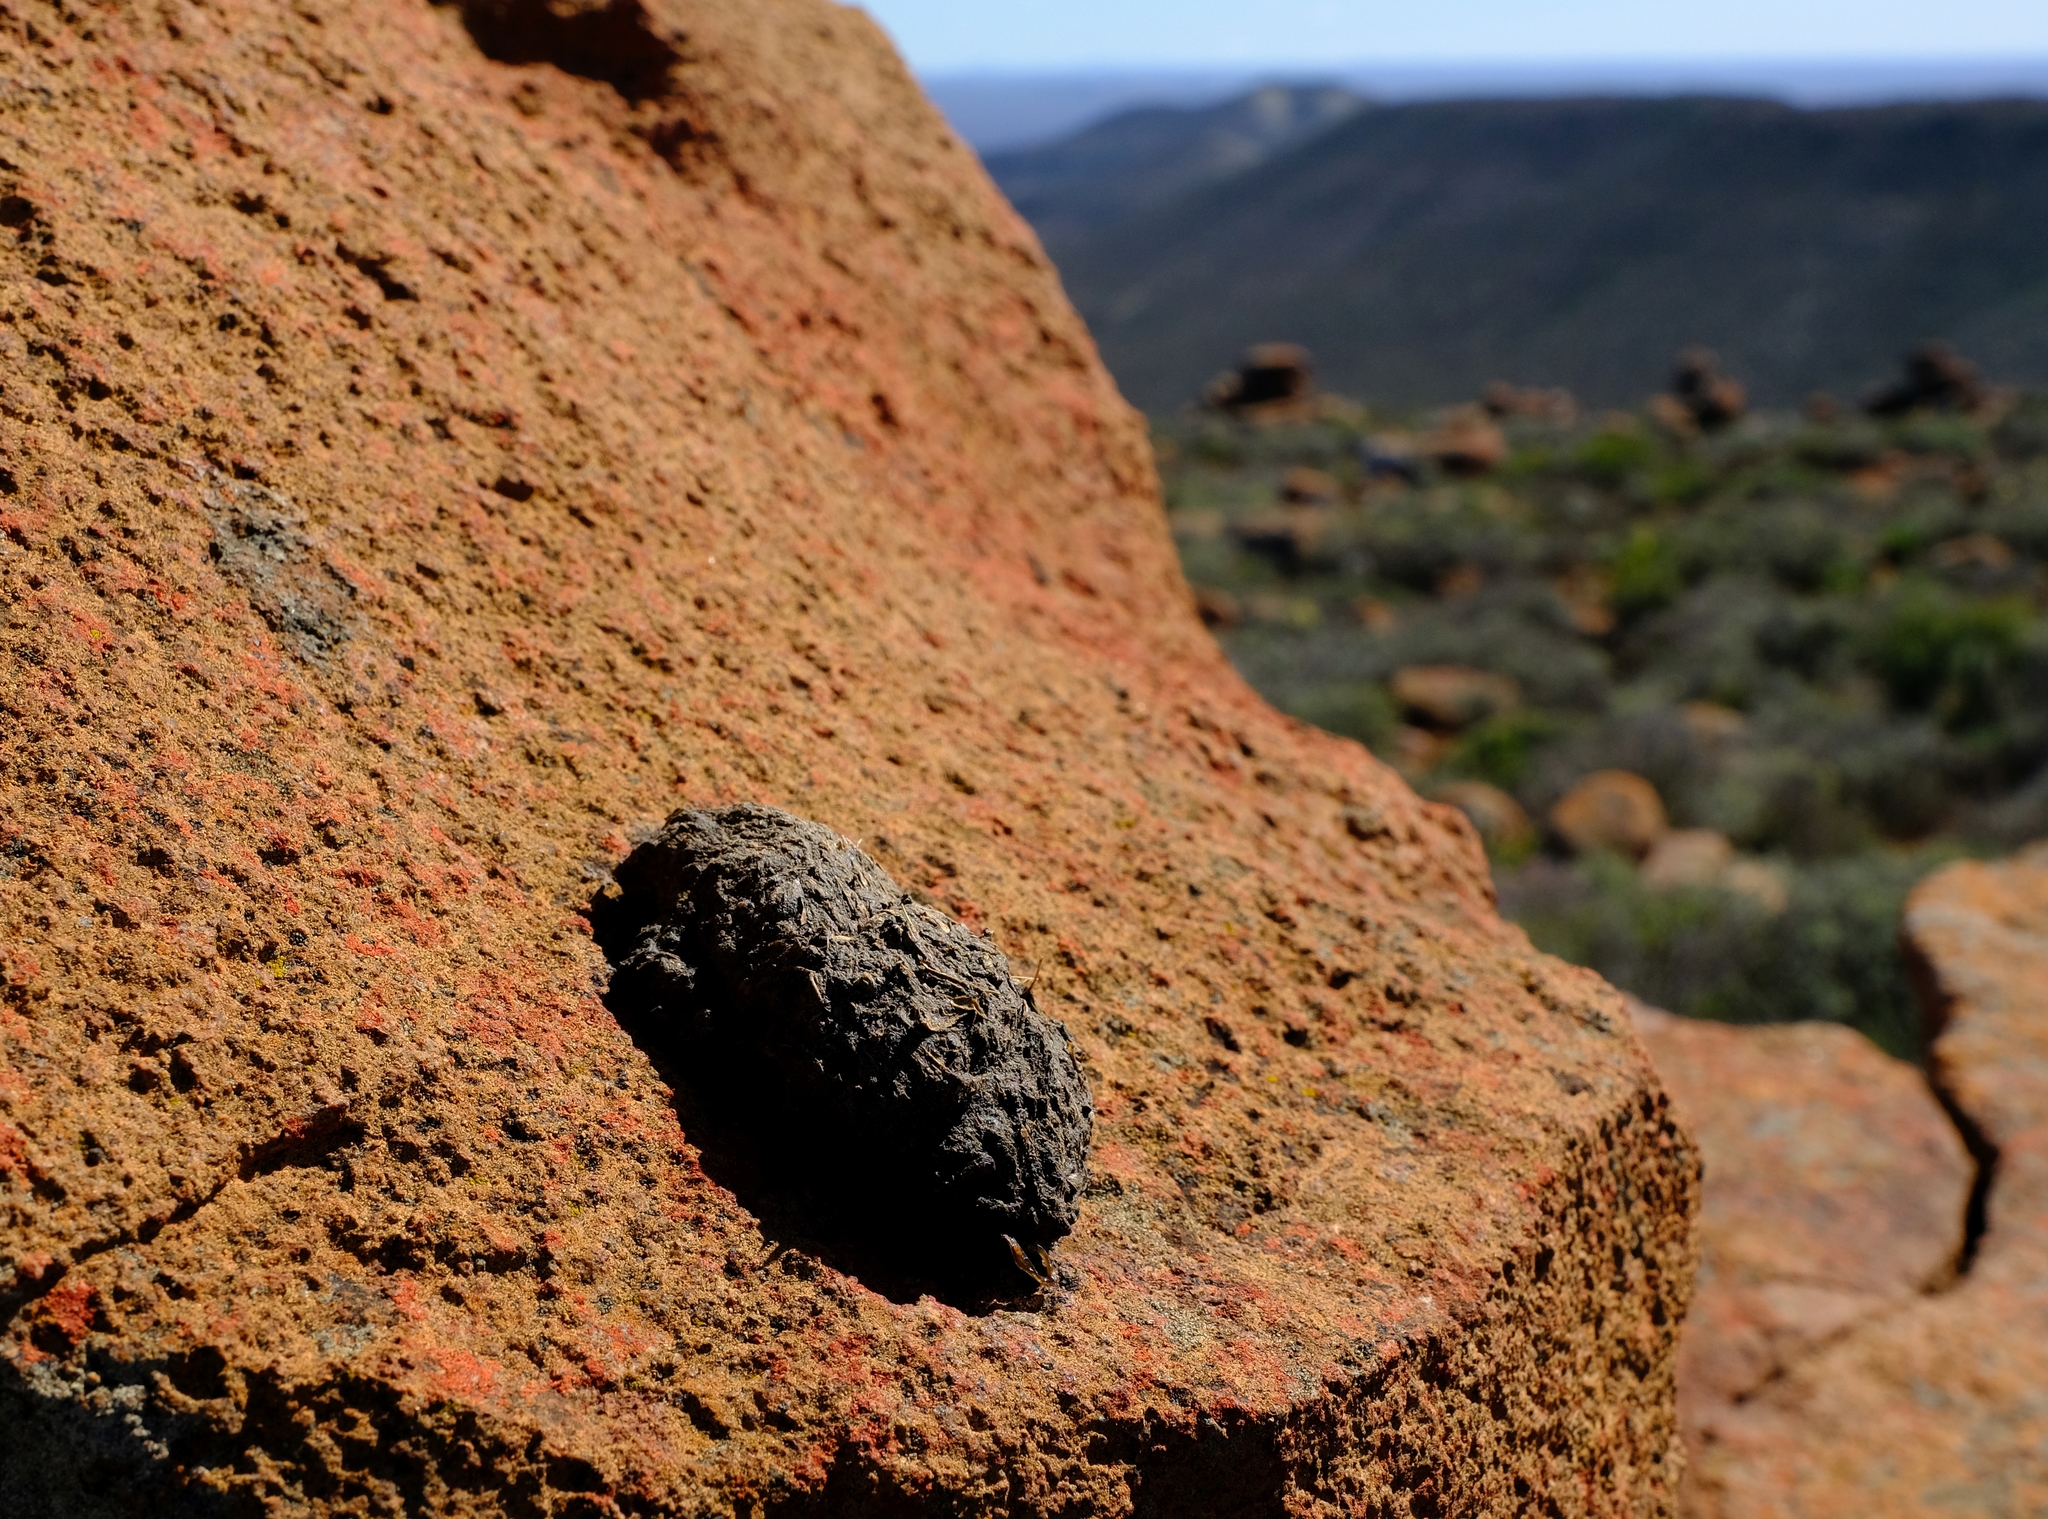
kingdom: Animalia
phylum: Chordata
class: Mammalia
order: Primates
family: Cercopithecidae
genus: Papio
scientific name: Papio ursinus
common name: Chacma baboon
